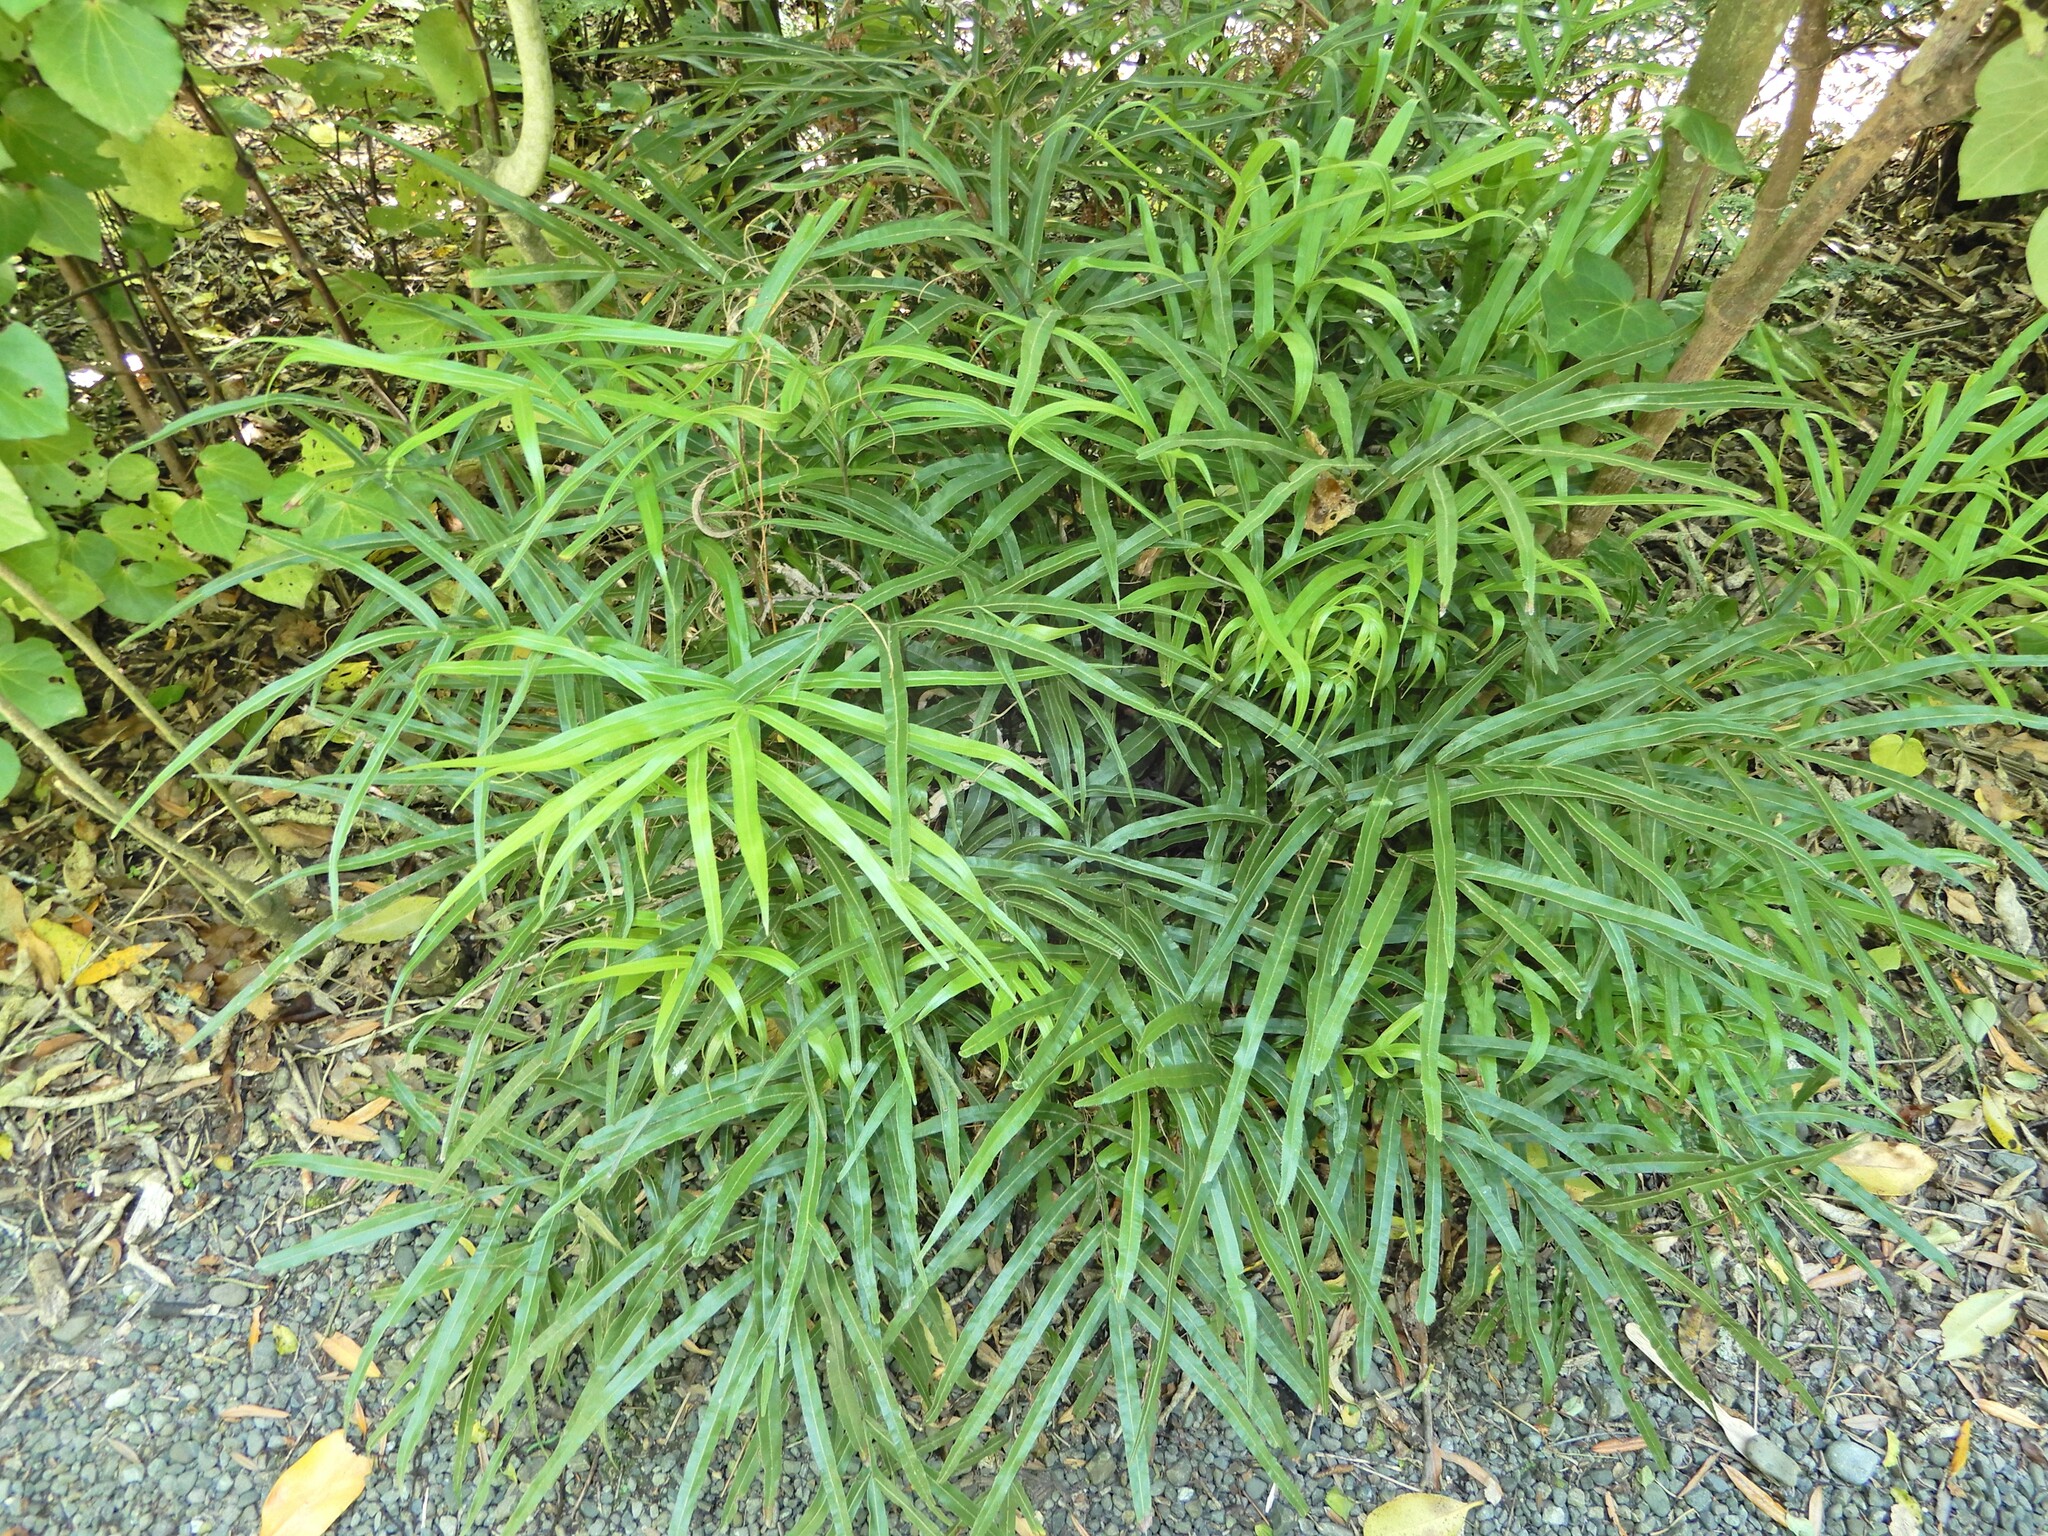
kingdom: Plantae
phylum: Tracheophyta
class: Polypodiopsida
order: Polypodiales
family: Pteridaceae
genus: Pteris
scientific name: Pteris cretica
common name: Ribbon fern
